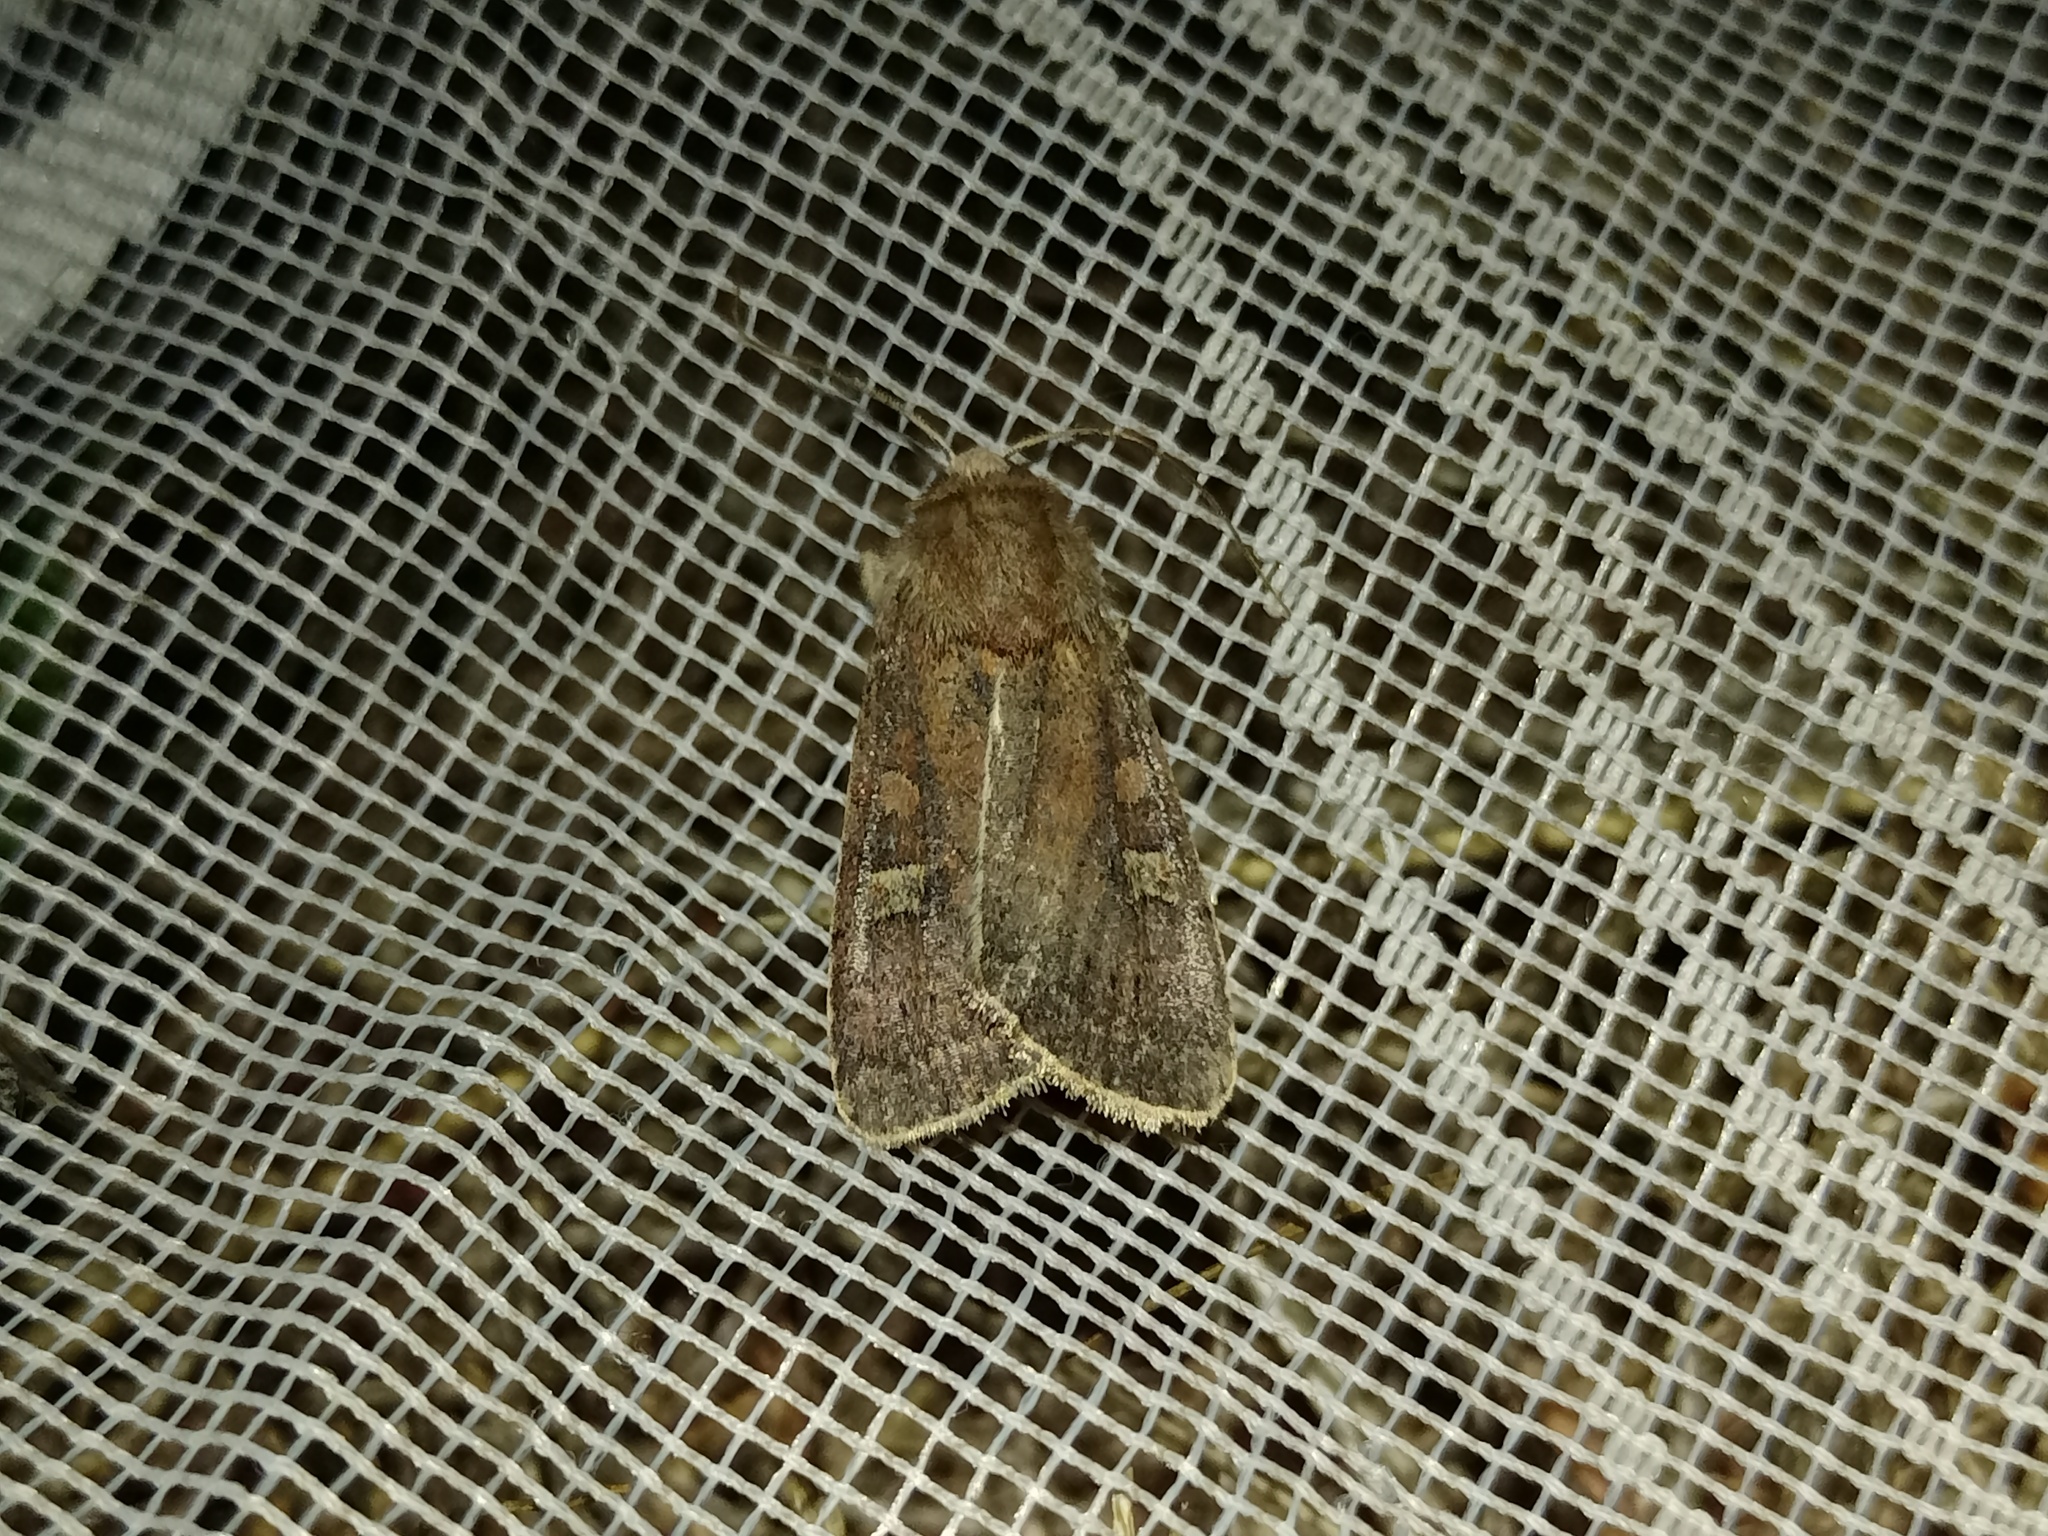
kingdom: Animalia
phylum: Arthropoda
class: Insecta
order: Lepidoptera
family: Noctuidae
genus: Xestia
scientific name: Xestia xanthographa
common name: Square-spot rustic
